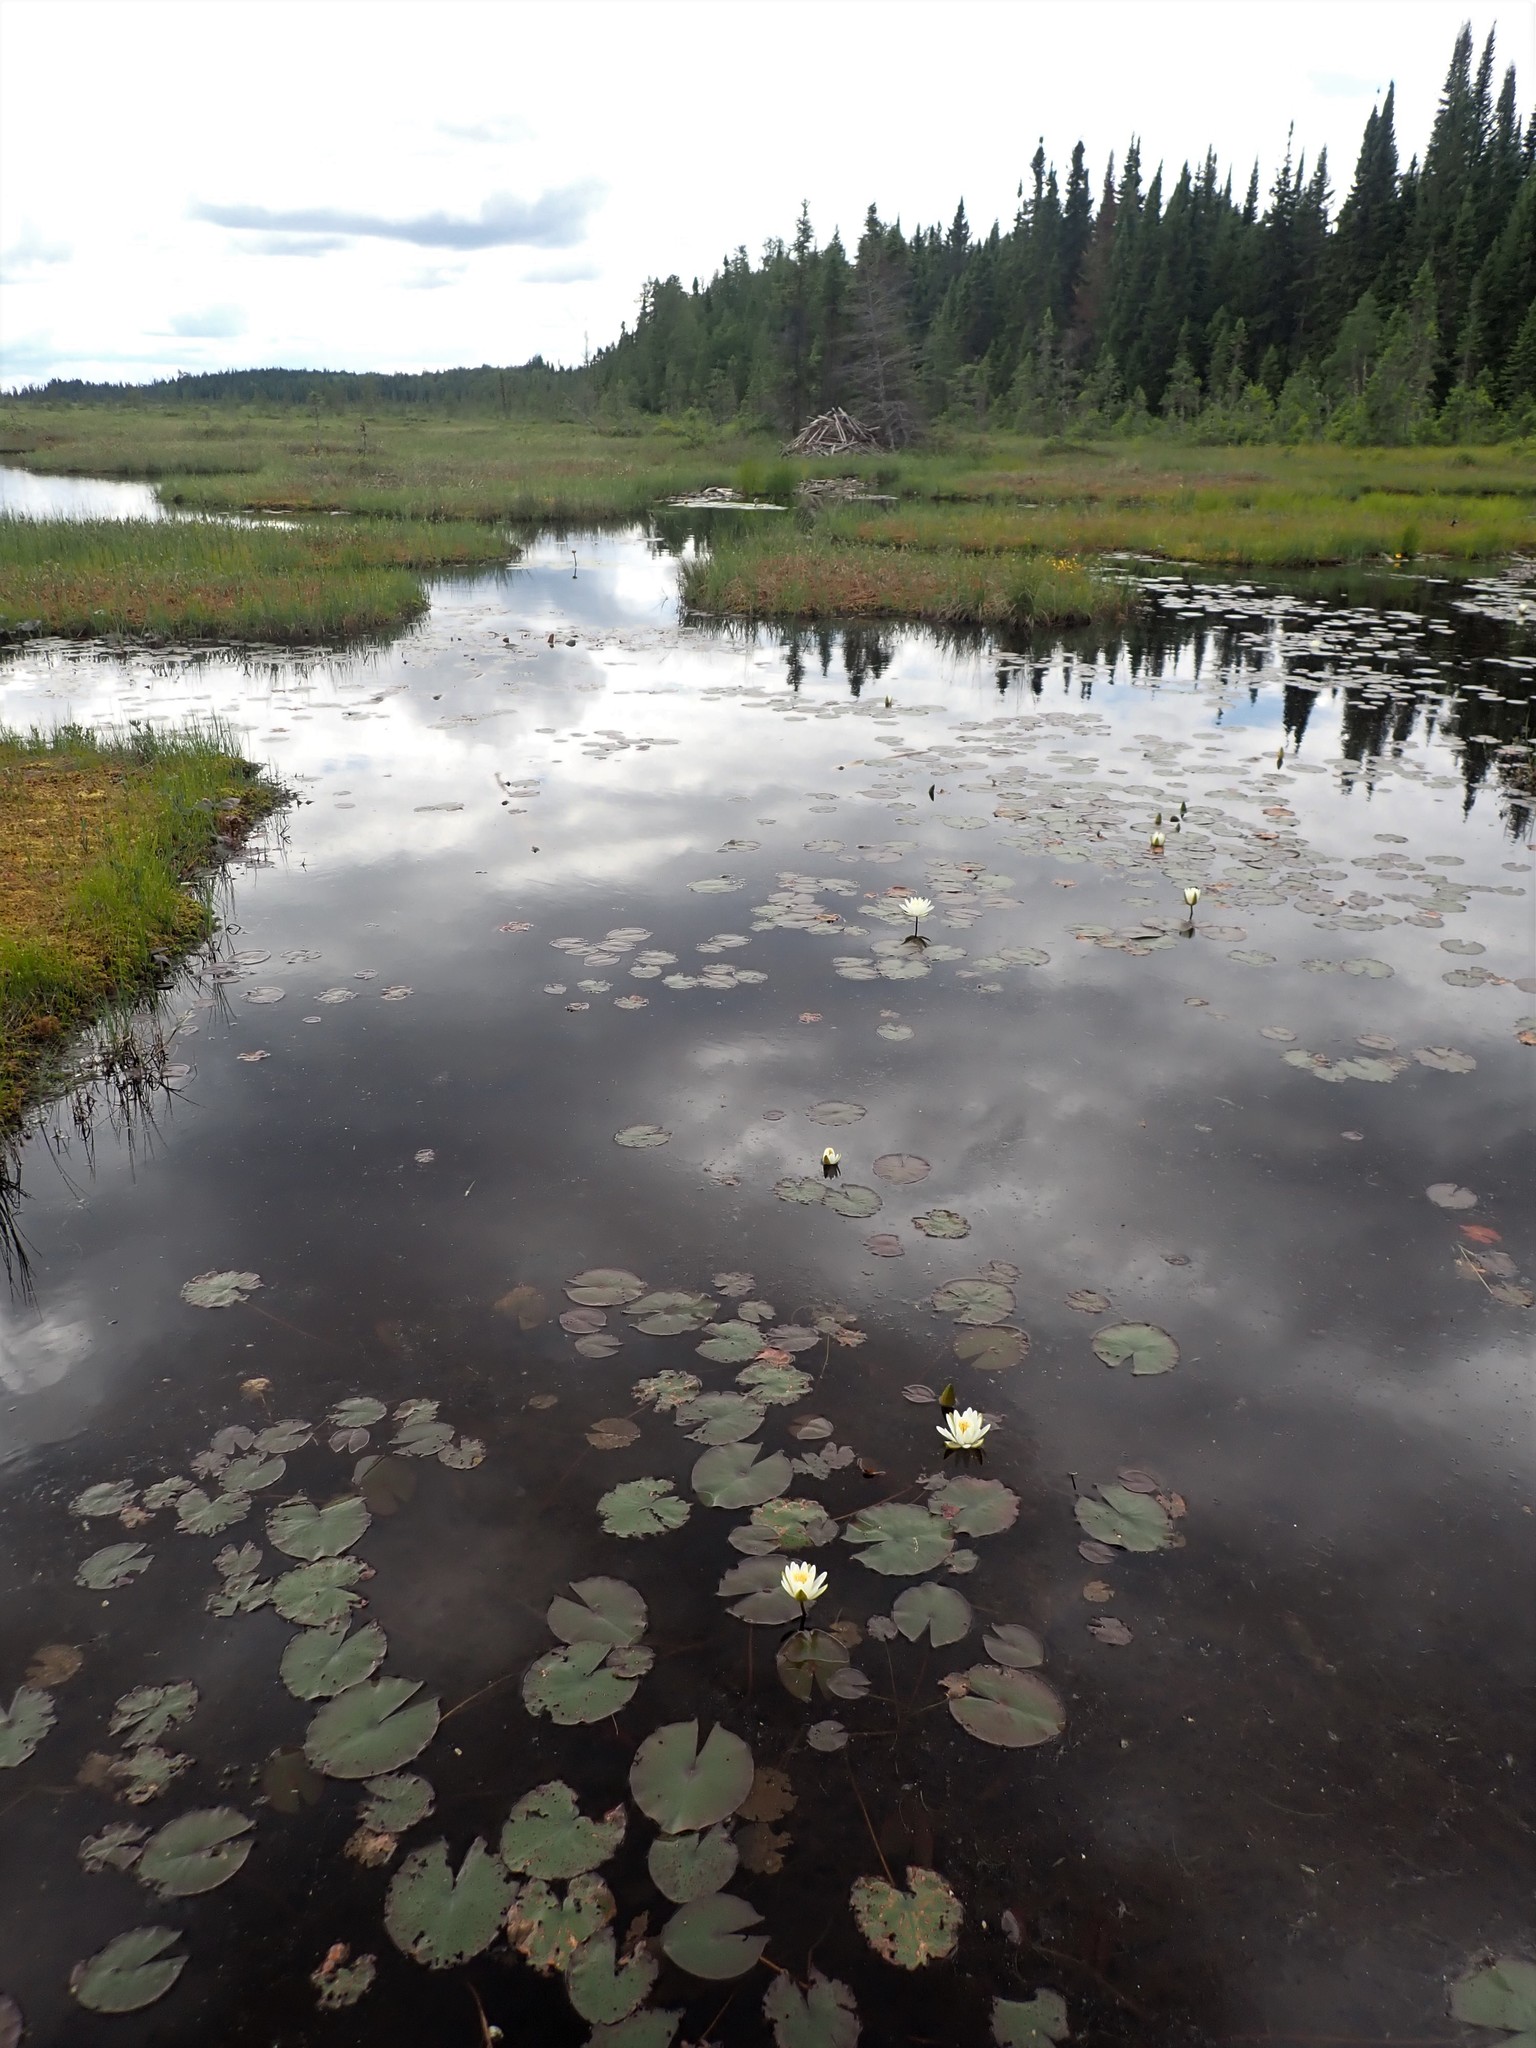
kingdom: Plantae
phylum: Tracheophyta
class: Magnoliopsida
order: Nymphaeales
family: Nymphaeaceae
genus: Nymphaea
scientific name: Nymphaea odorata
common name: Fragrant water-lily
